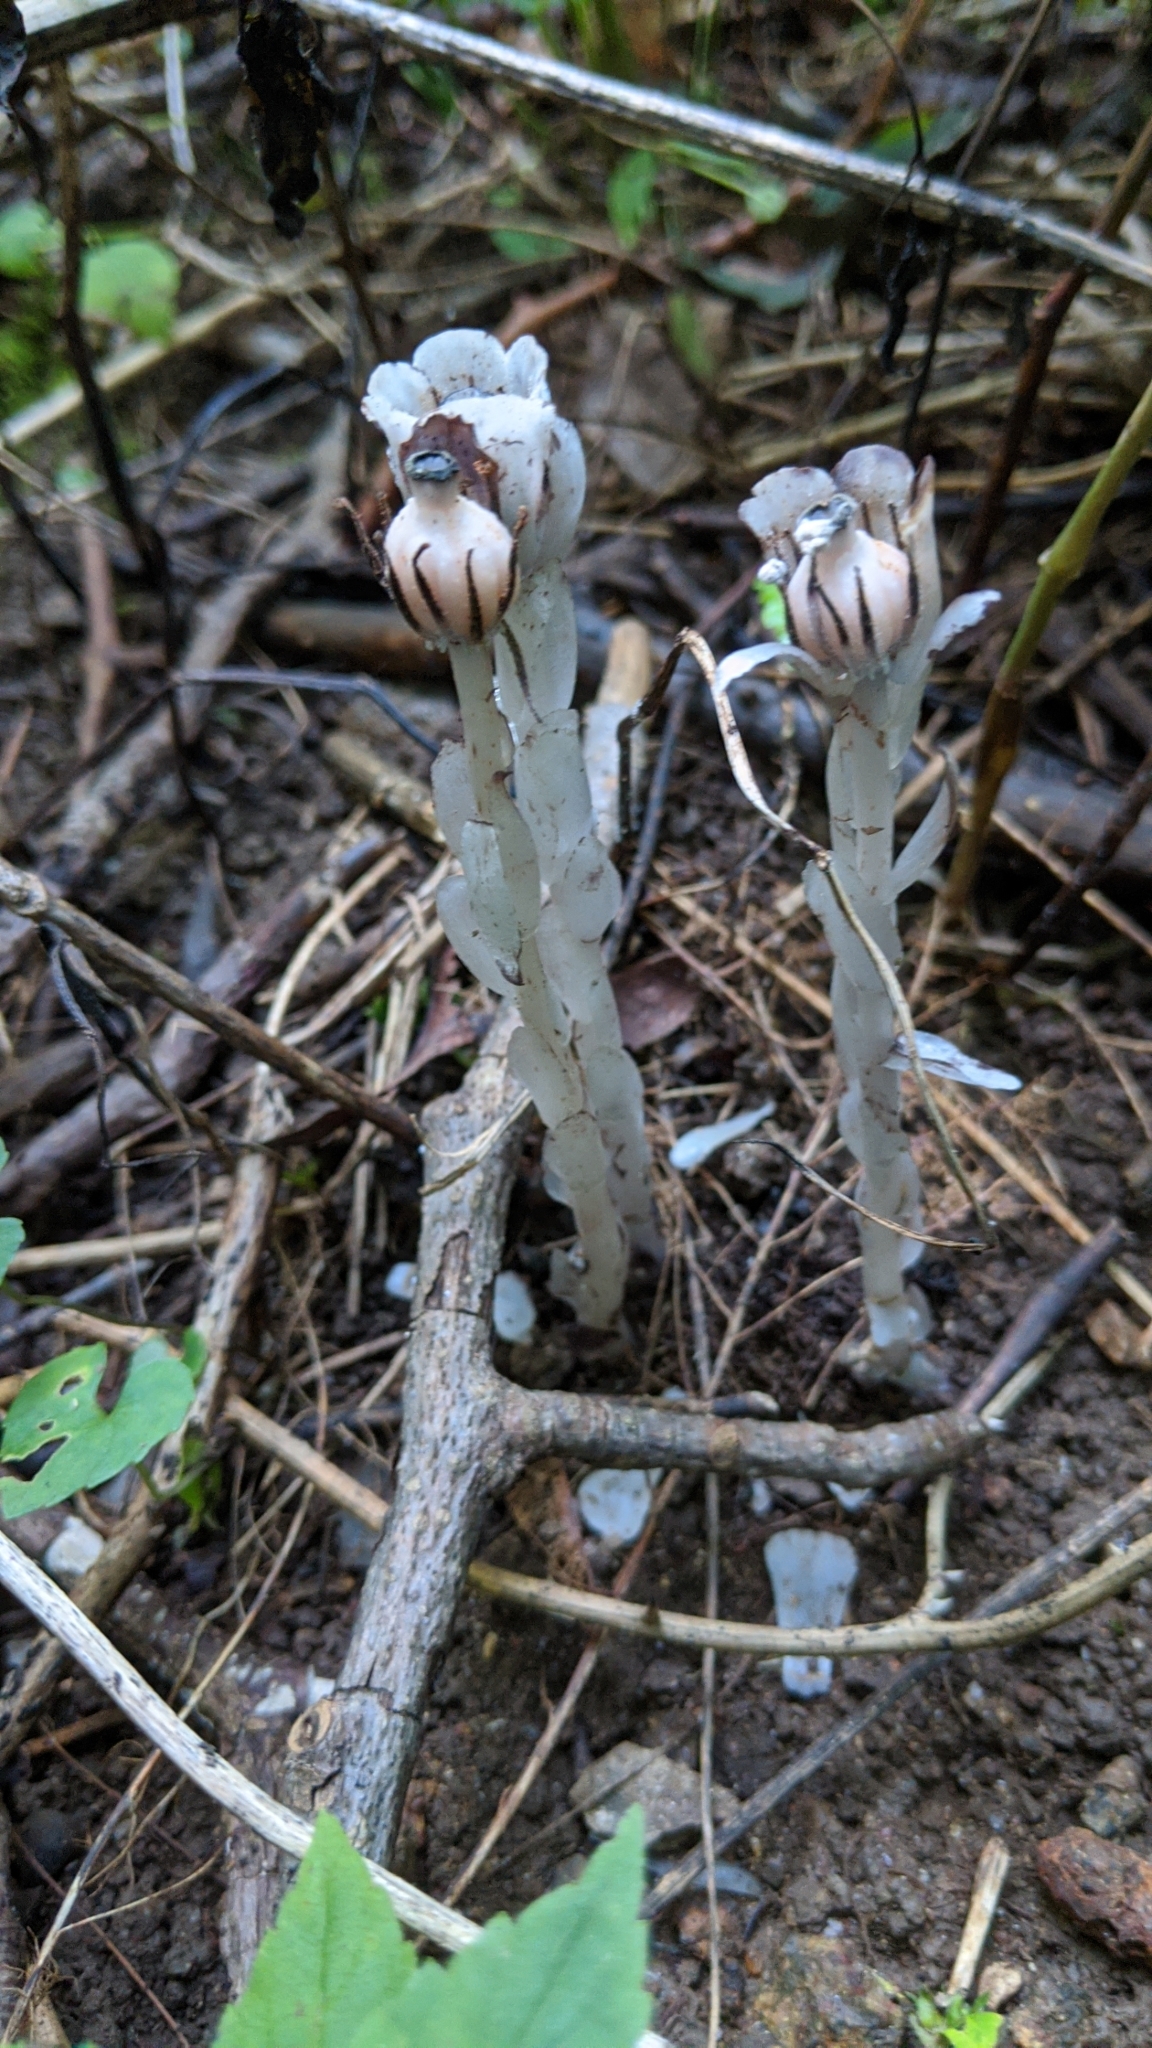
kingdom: Plantae
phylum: Tracheophyta
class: Magnoliopsida
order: Ericales
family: Ericaceae
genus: Monotropa
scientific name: Monotropa uniflora
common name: Convulsion root
